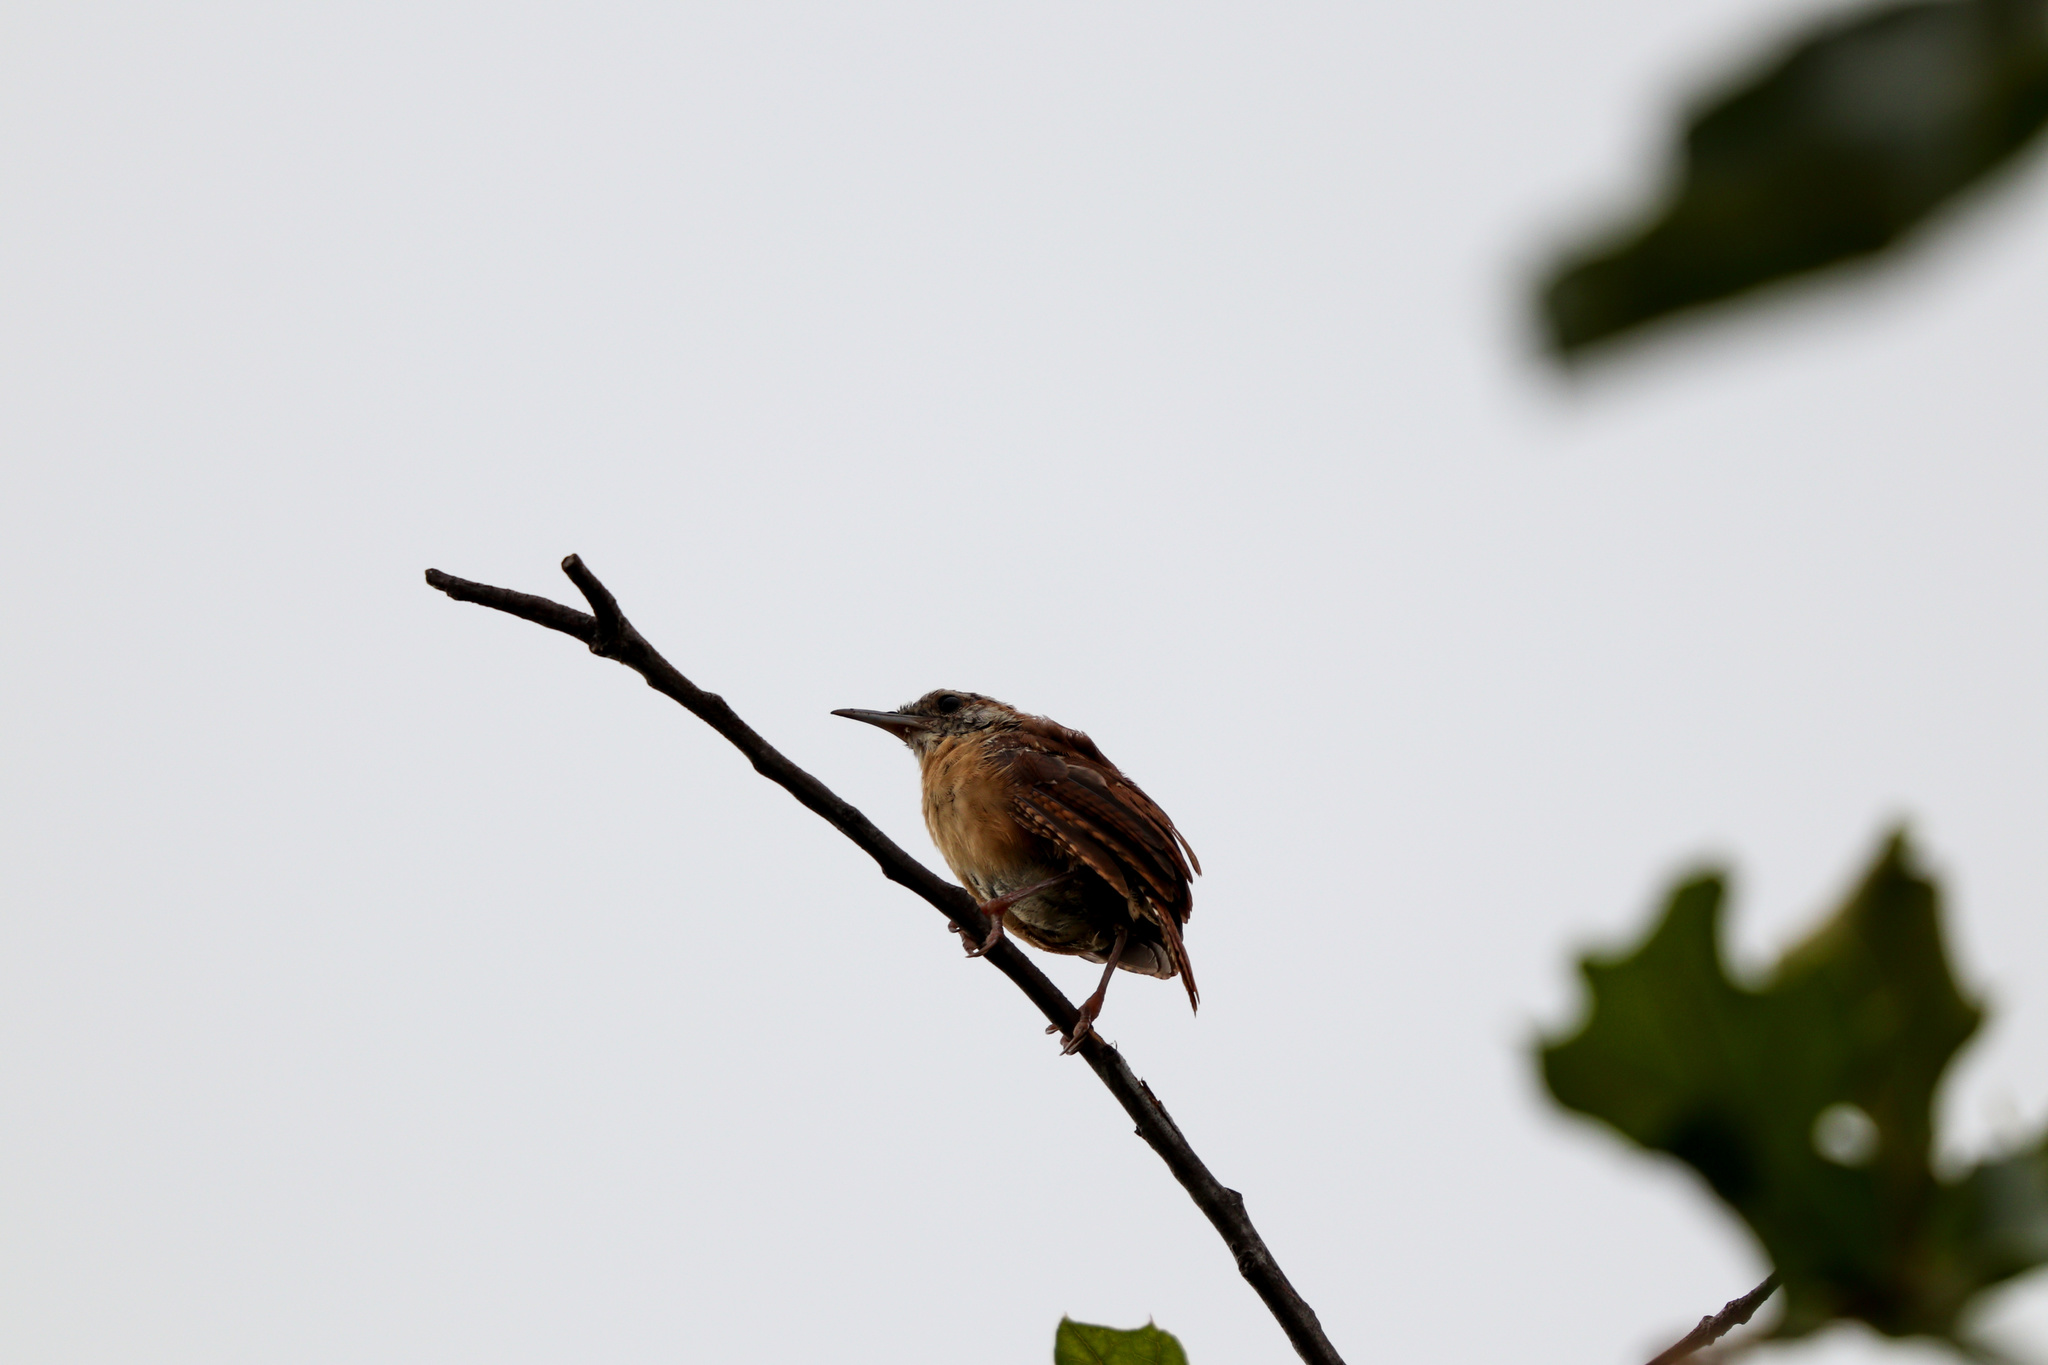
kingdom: Animalia
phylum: Chordata
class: Aves
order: Passeriformes
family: Troglodytidae
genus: Thryothorus
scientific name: Thryothorus ludovicianus
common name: Carolina wren
